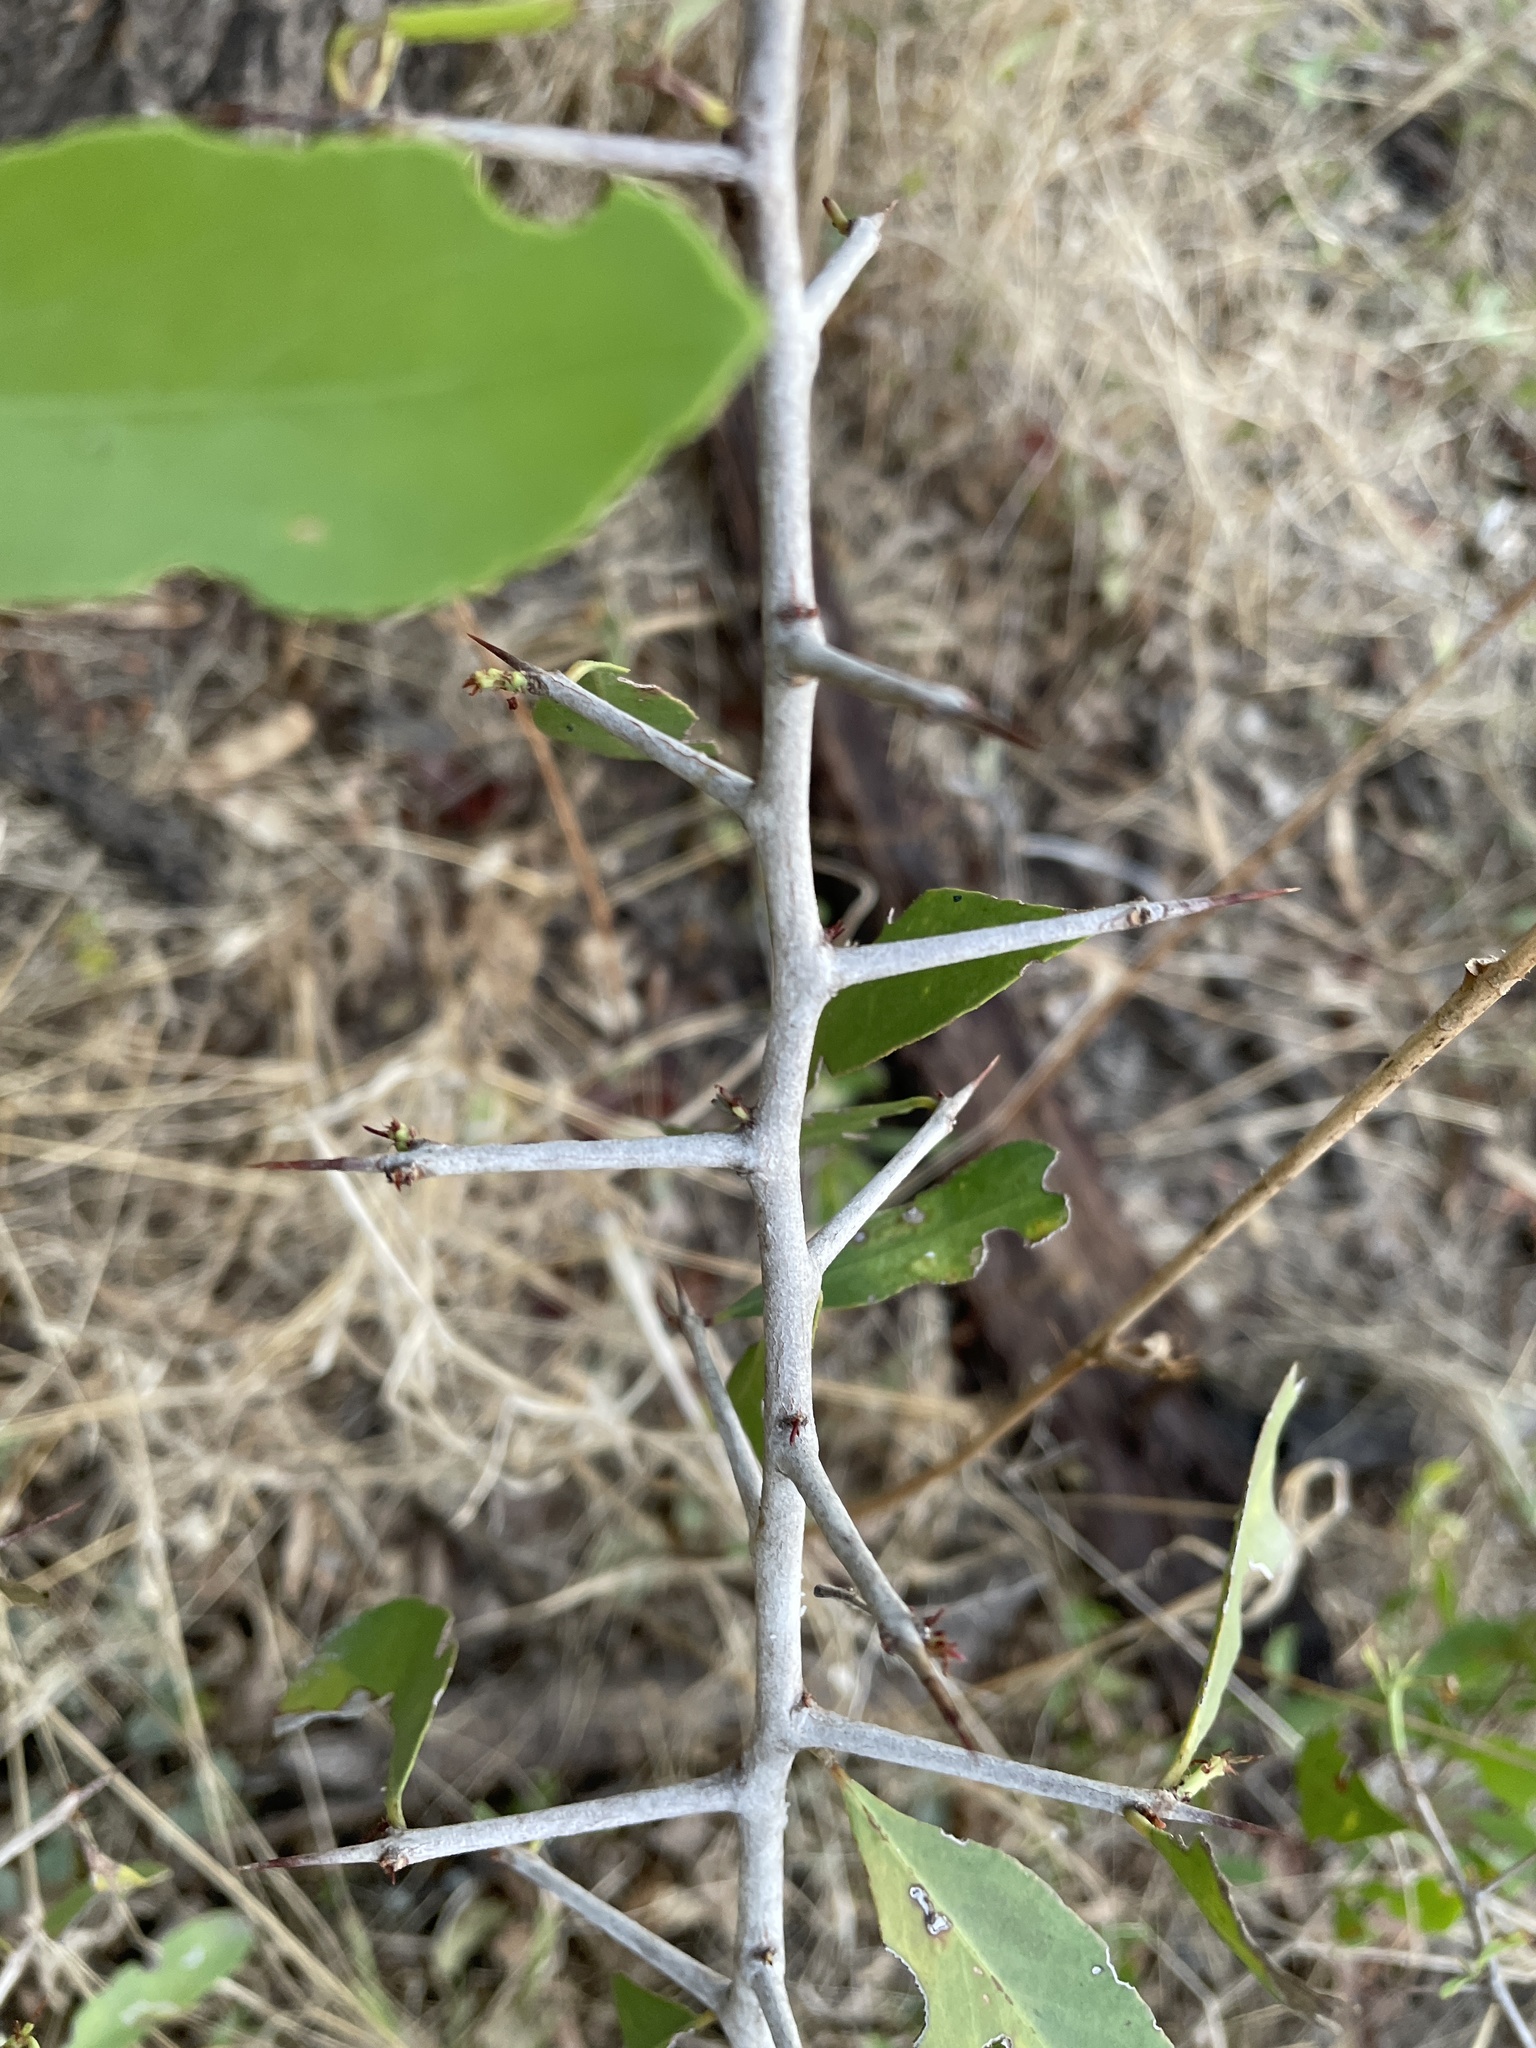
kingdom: Plantae
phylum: Tracheophyta
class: Magnoliopsida
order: Celastrales
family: Celastraceae
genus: Gymnosporia
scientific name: Gymnosporia senegalensis
